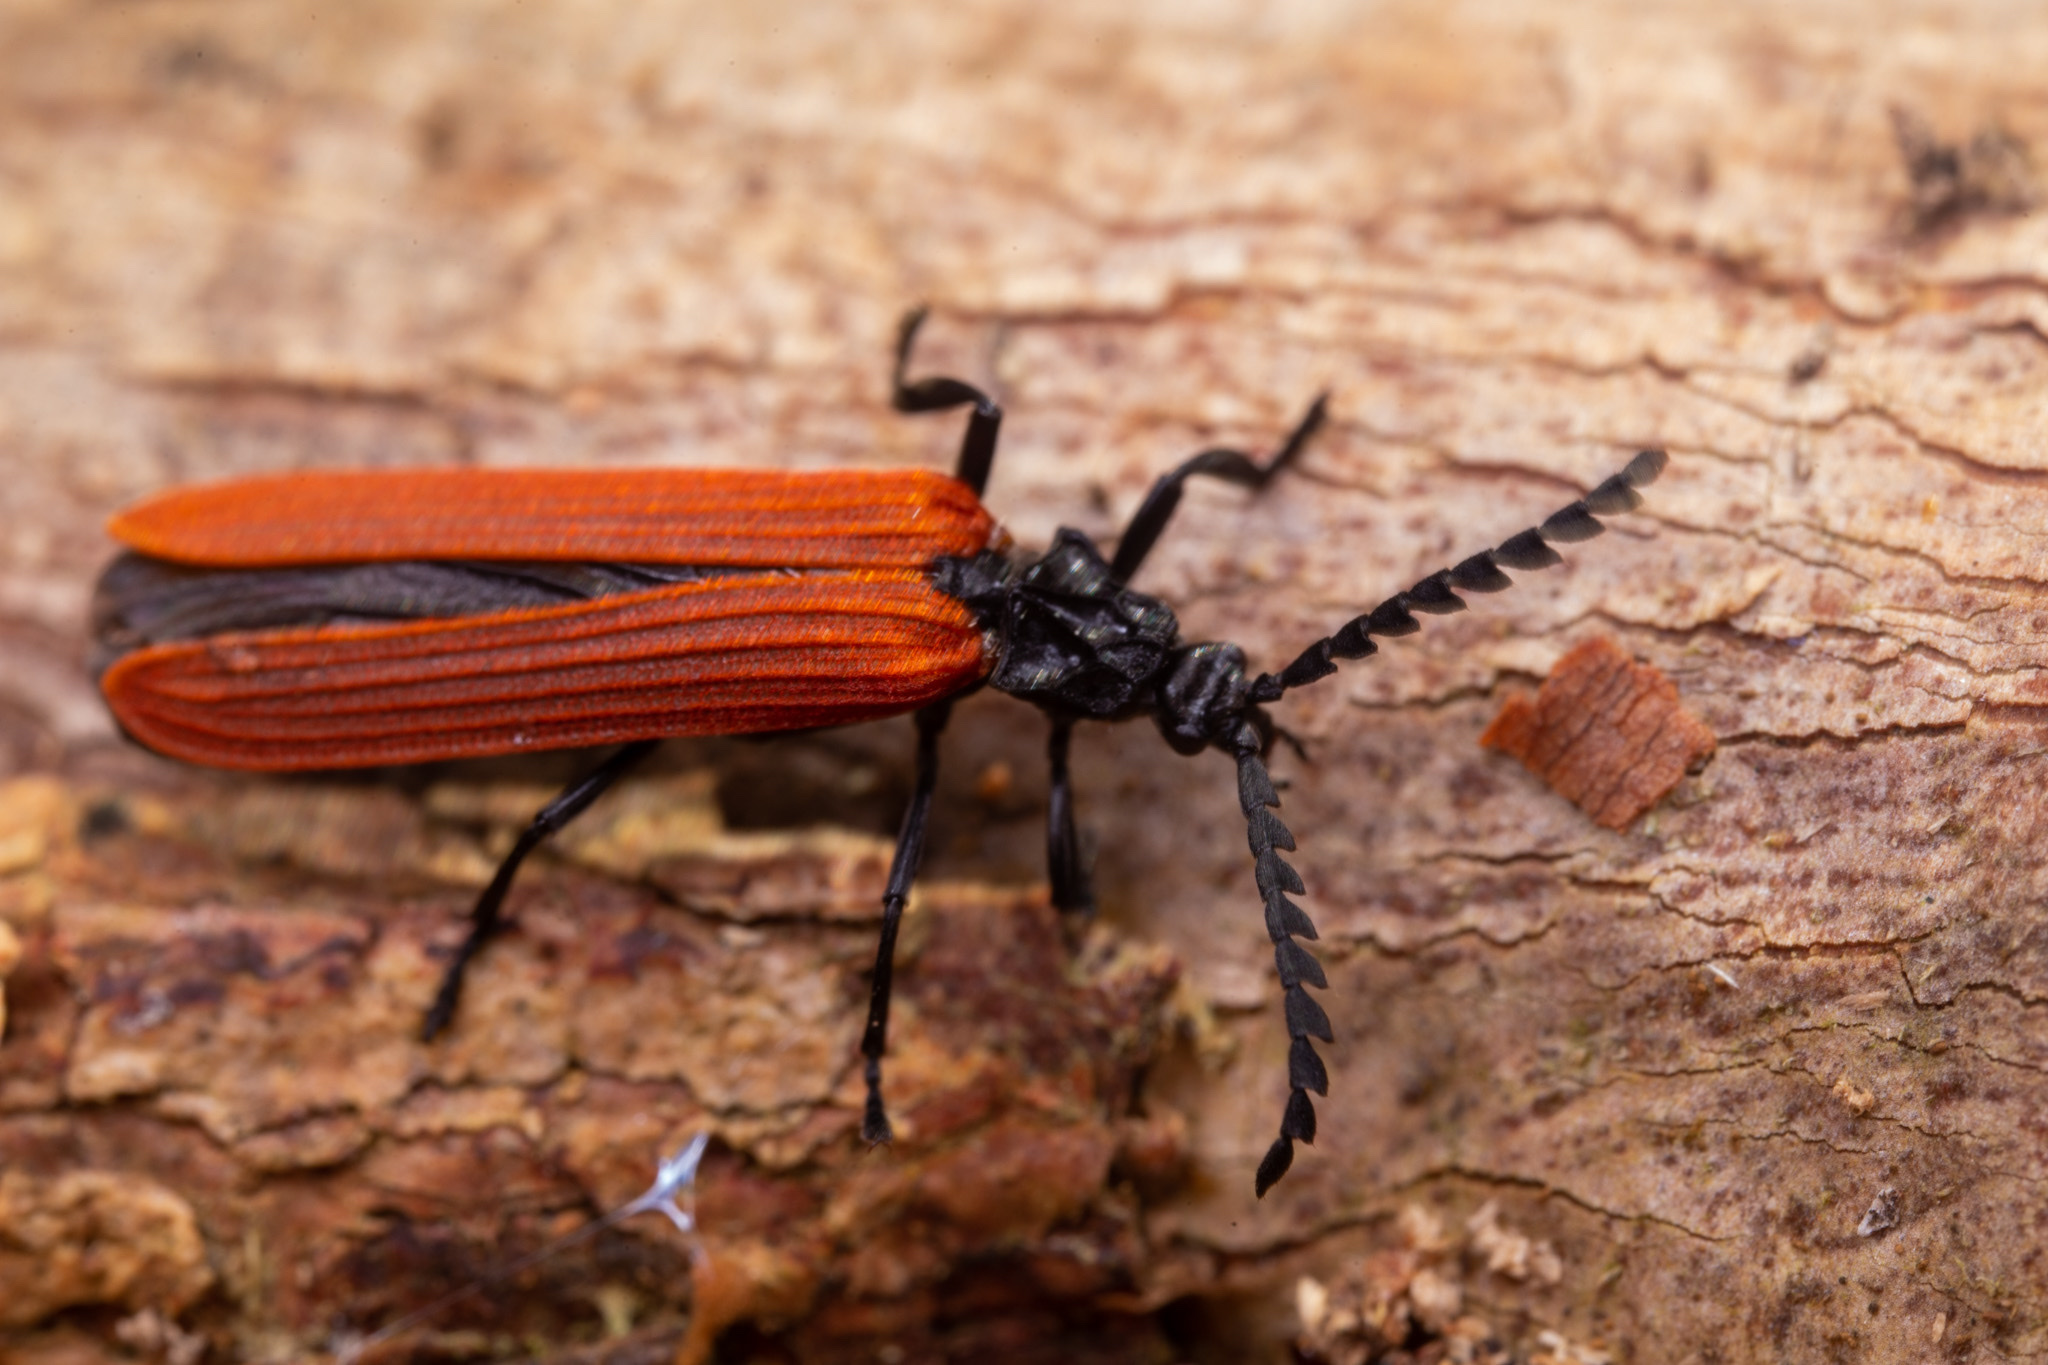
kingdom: Animalia
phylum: Arthropoda
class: Insecta
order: Coleoptera
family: Lycidae
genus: Porrostoma
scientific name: Porrostoma rufipenne
